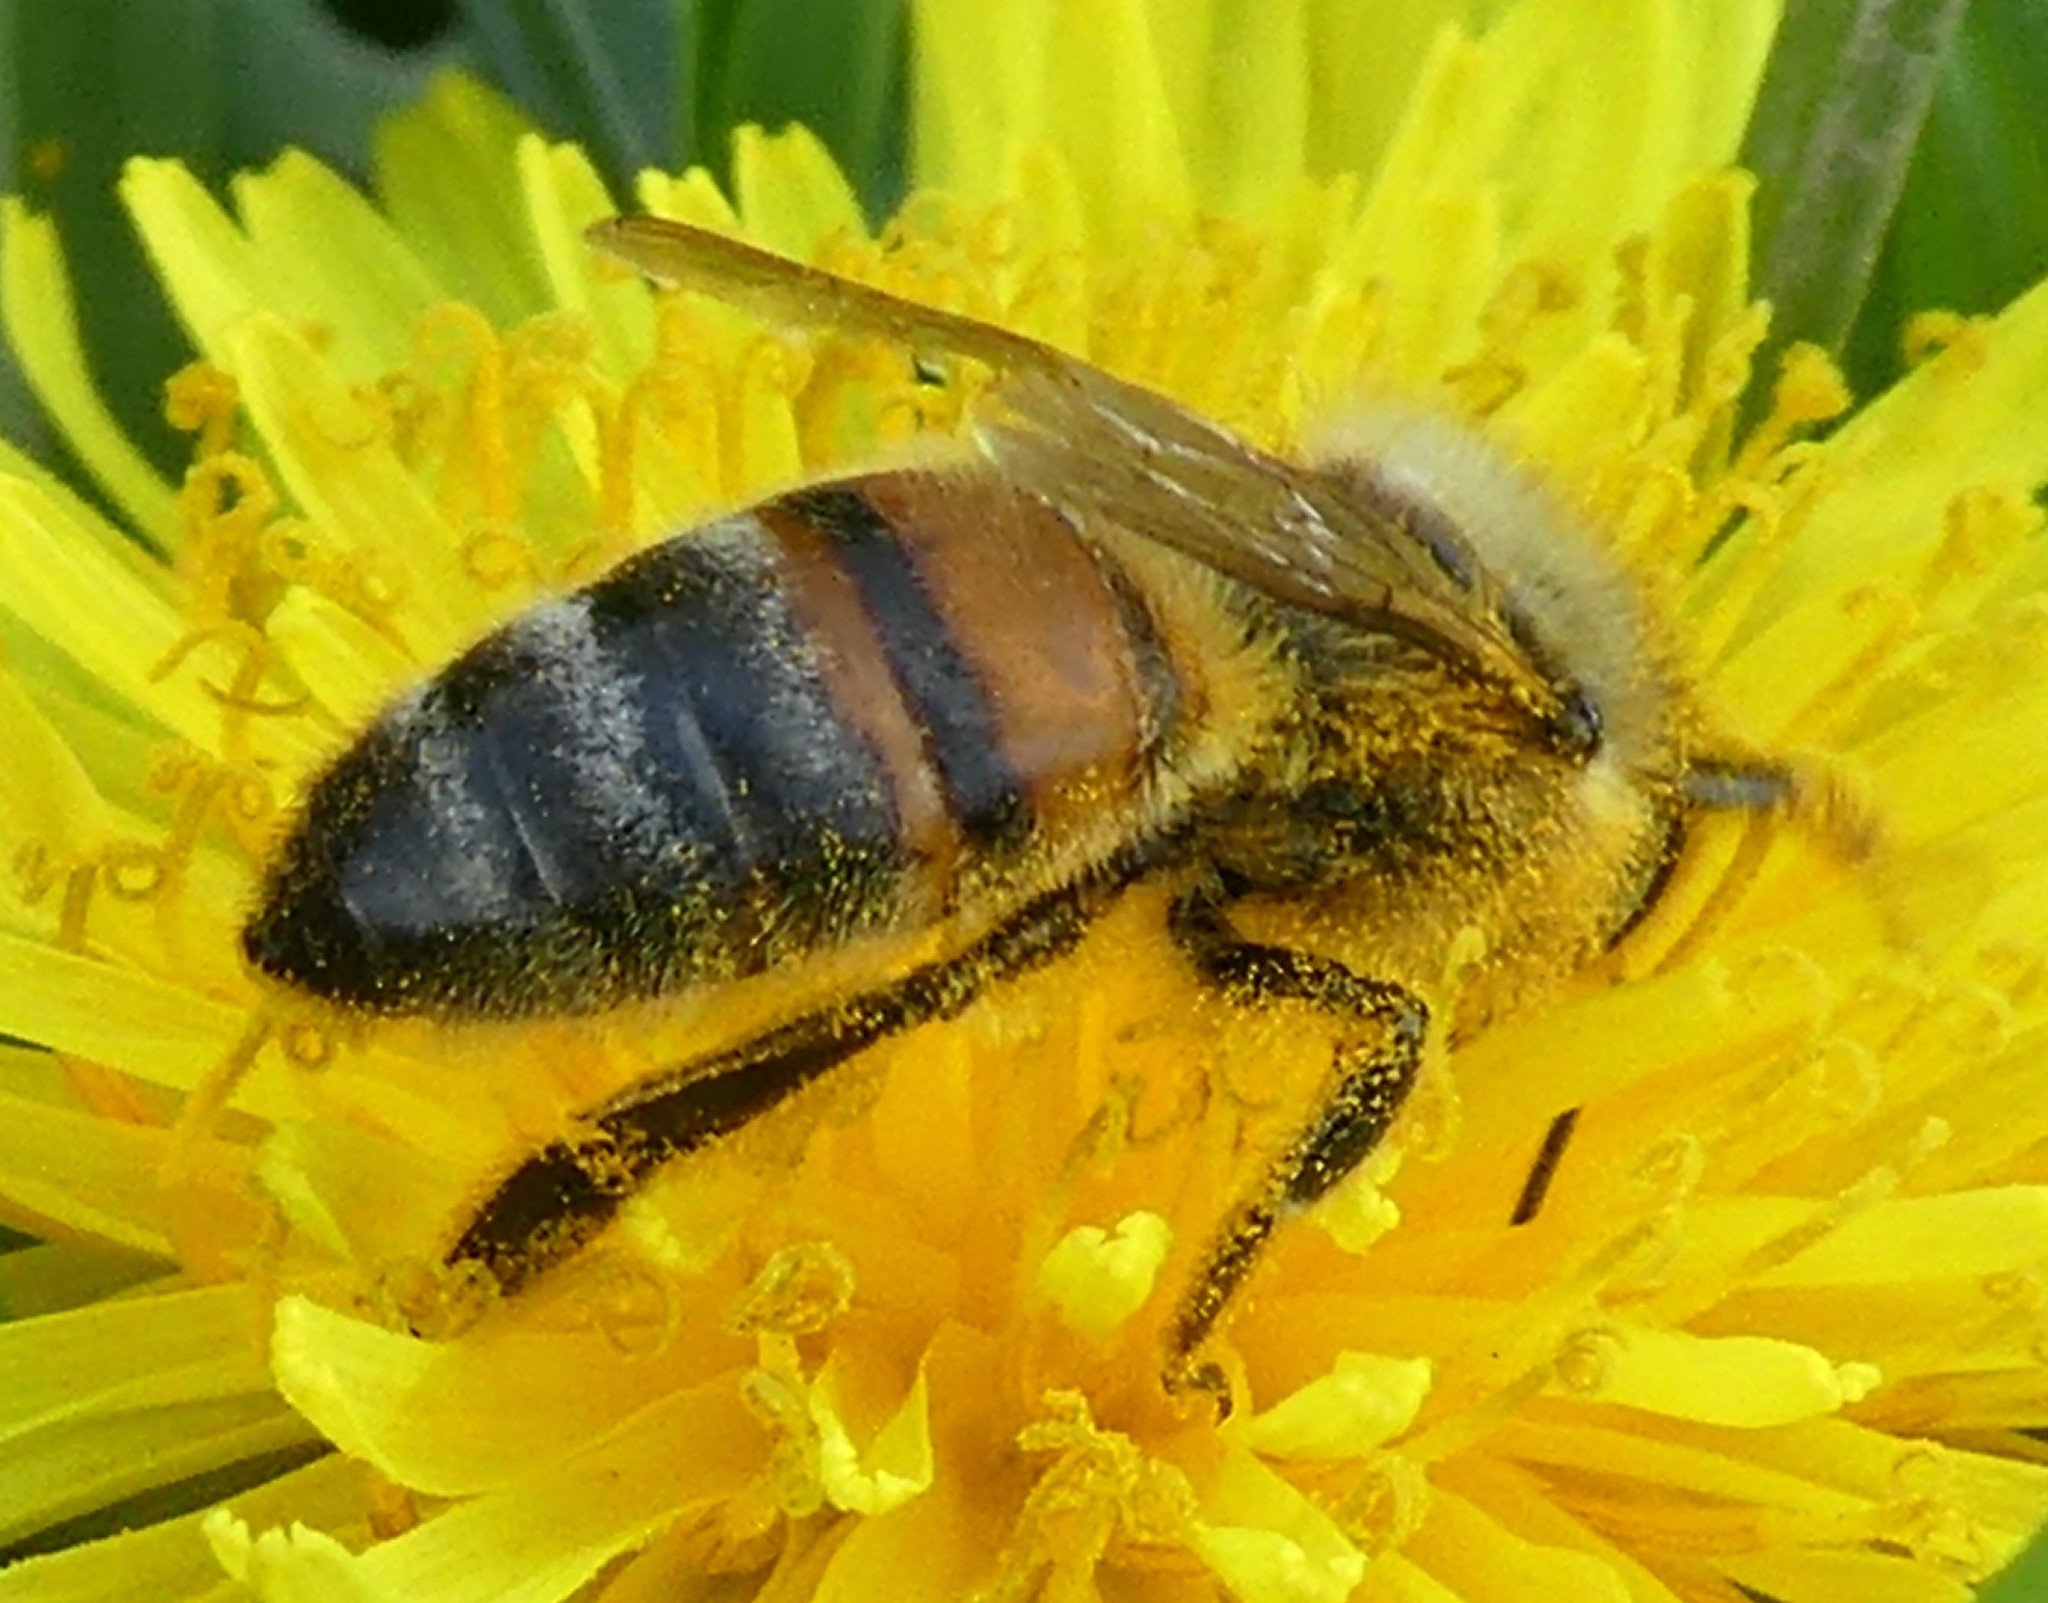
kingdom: Animalia
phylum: Arthropoda
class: Insecta
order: Hymenoptera
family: Apidae
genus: Apis
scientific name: Apis mellifera
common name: Honey bee
